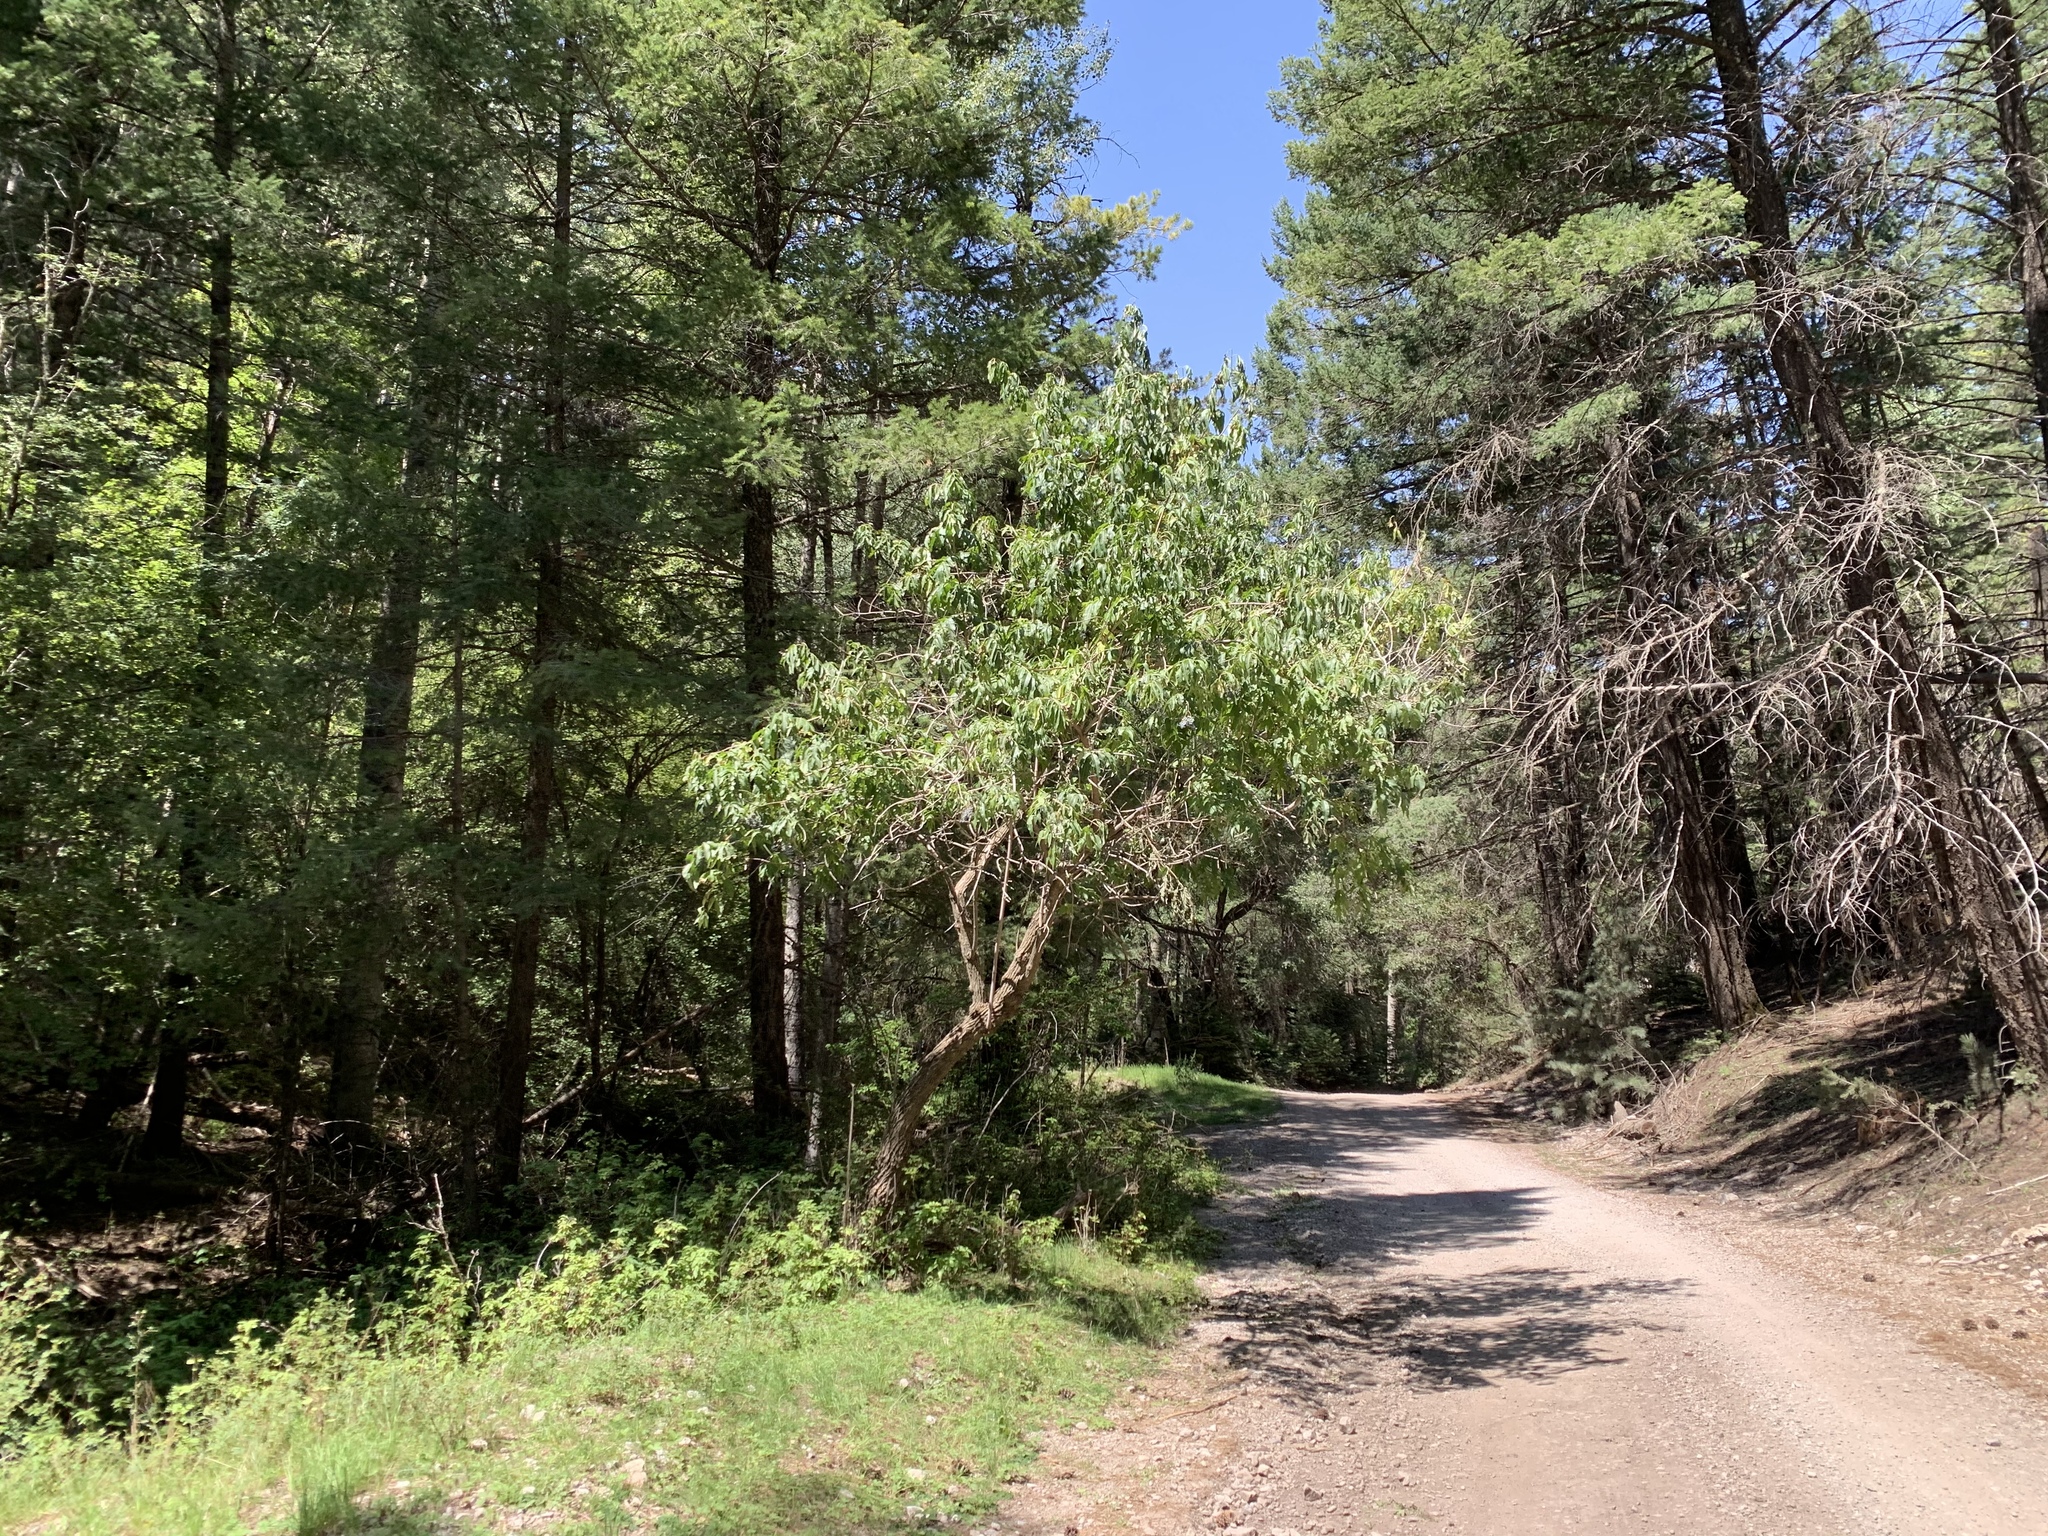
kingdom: Plantae
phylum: Tracheophyta
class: Magnoliopsida
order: Dipsacales
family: Viburnaceae
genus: Sambucus
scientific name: Sambucus cerulea
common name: Blue elder
